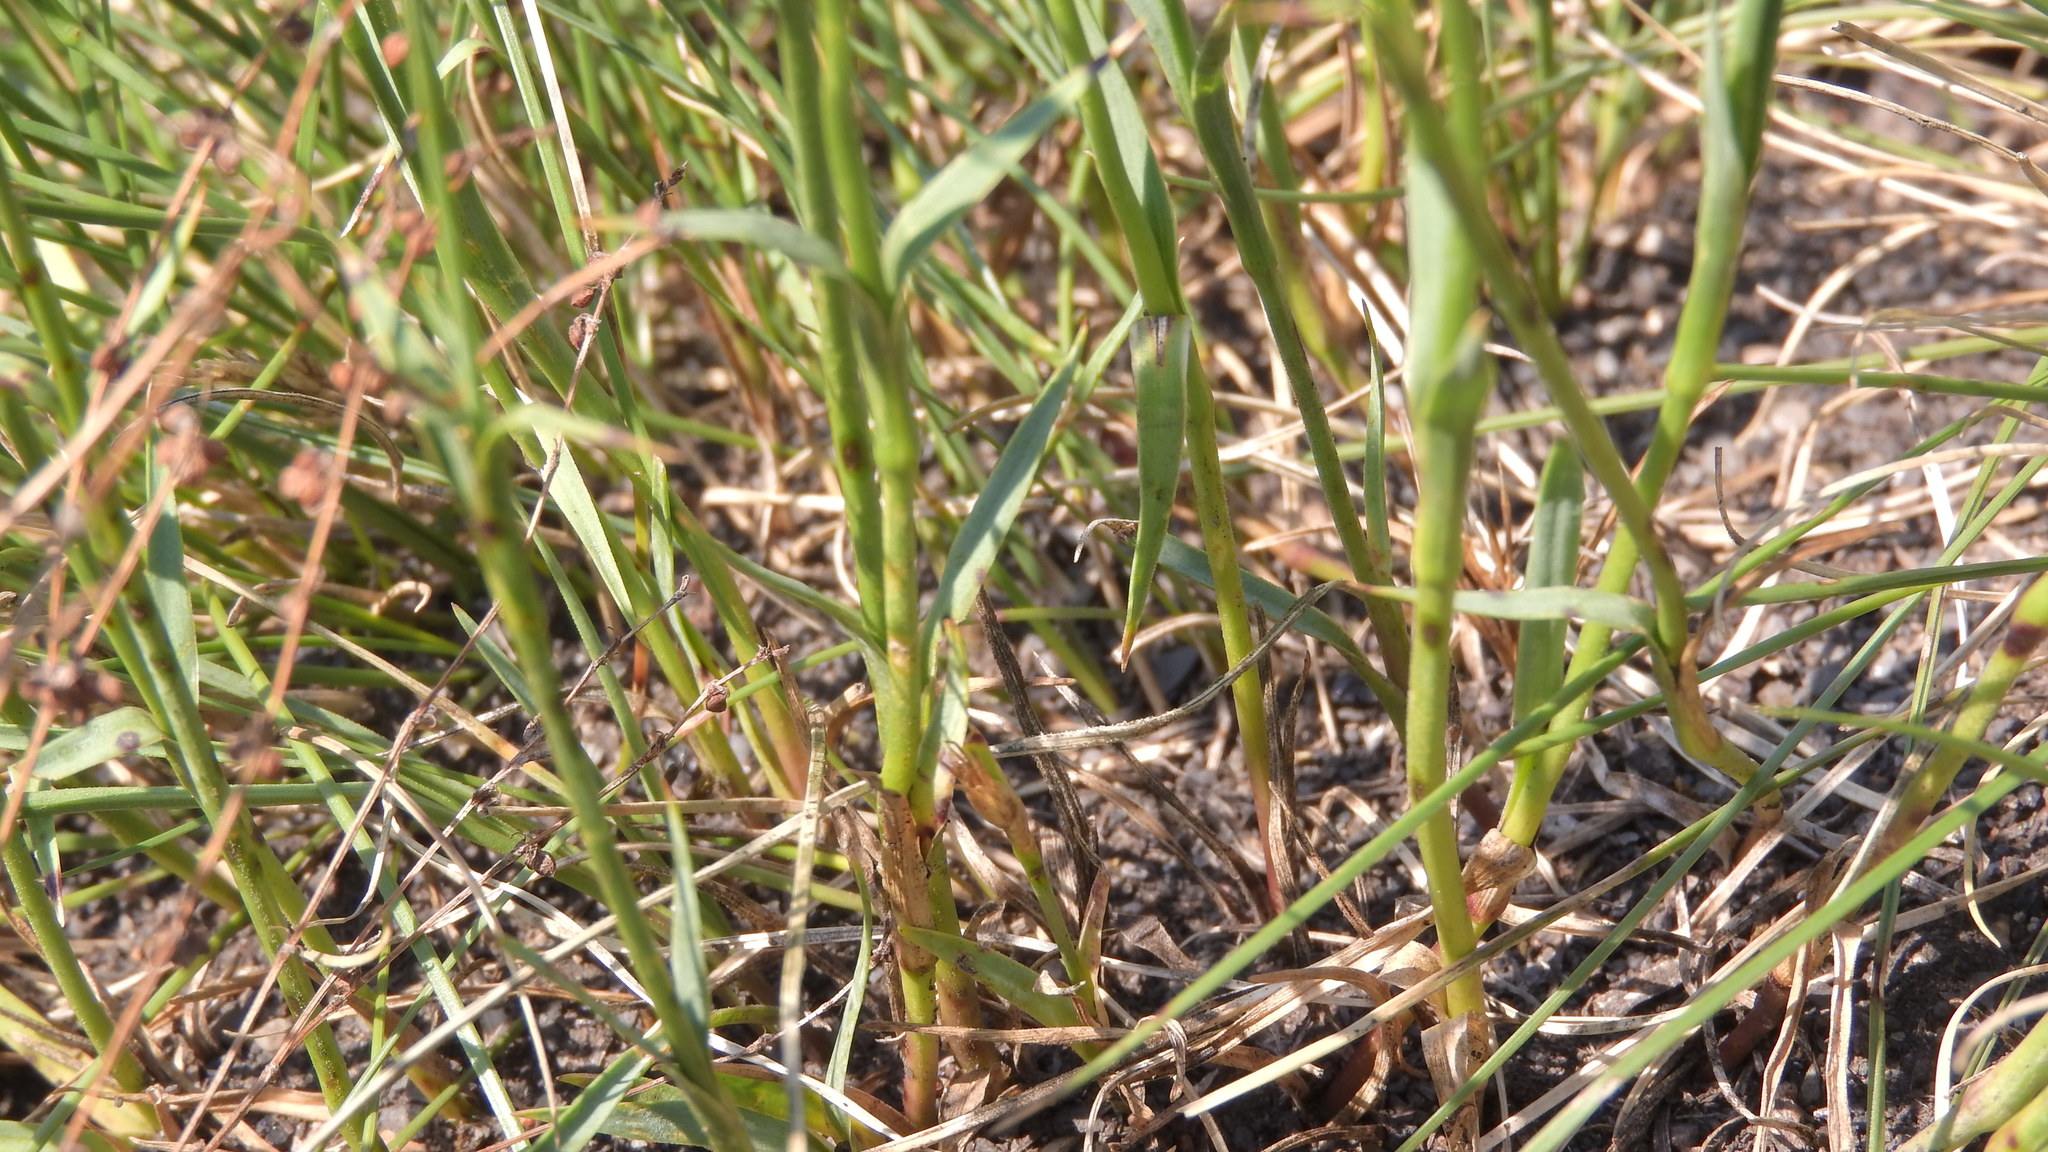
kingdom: Plantae
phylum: Tracheophyta
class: Magnoliopsida
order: Caryophyllales
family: Caryophyllaceae
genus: Dianthus
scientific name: Dianthus carthusianorum
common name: Carthusian pink
